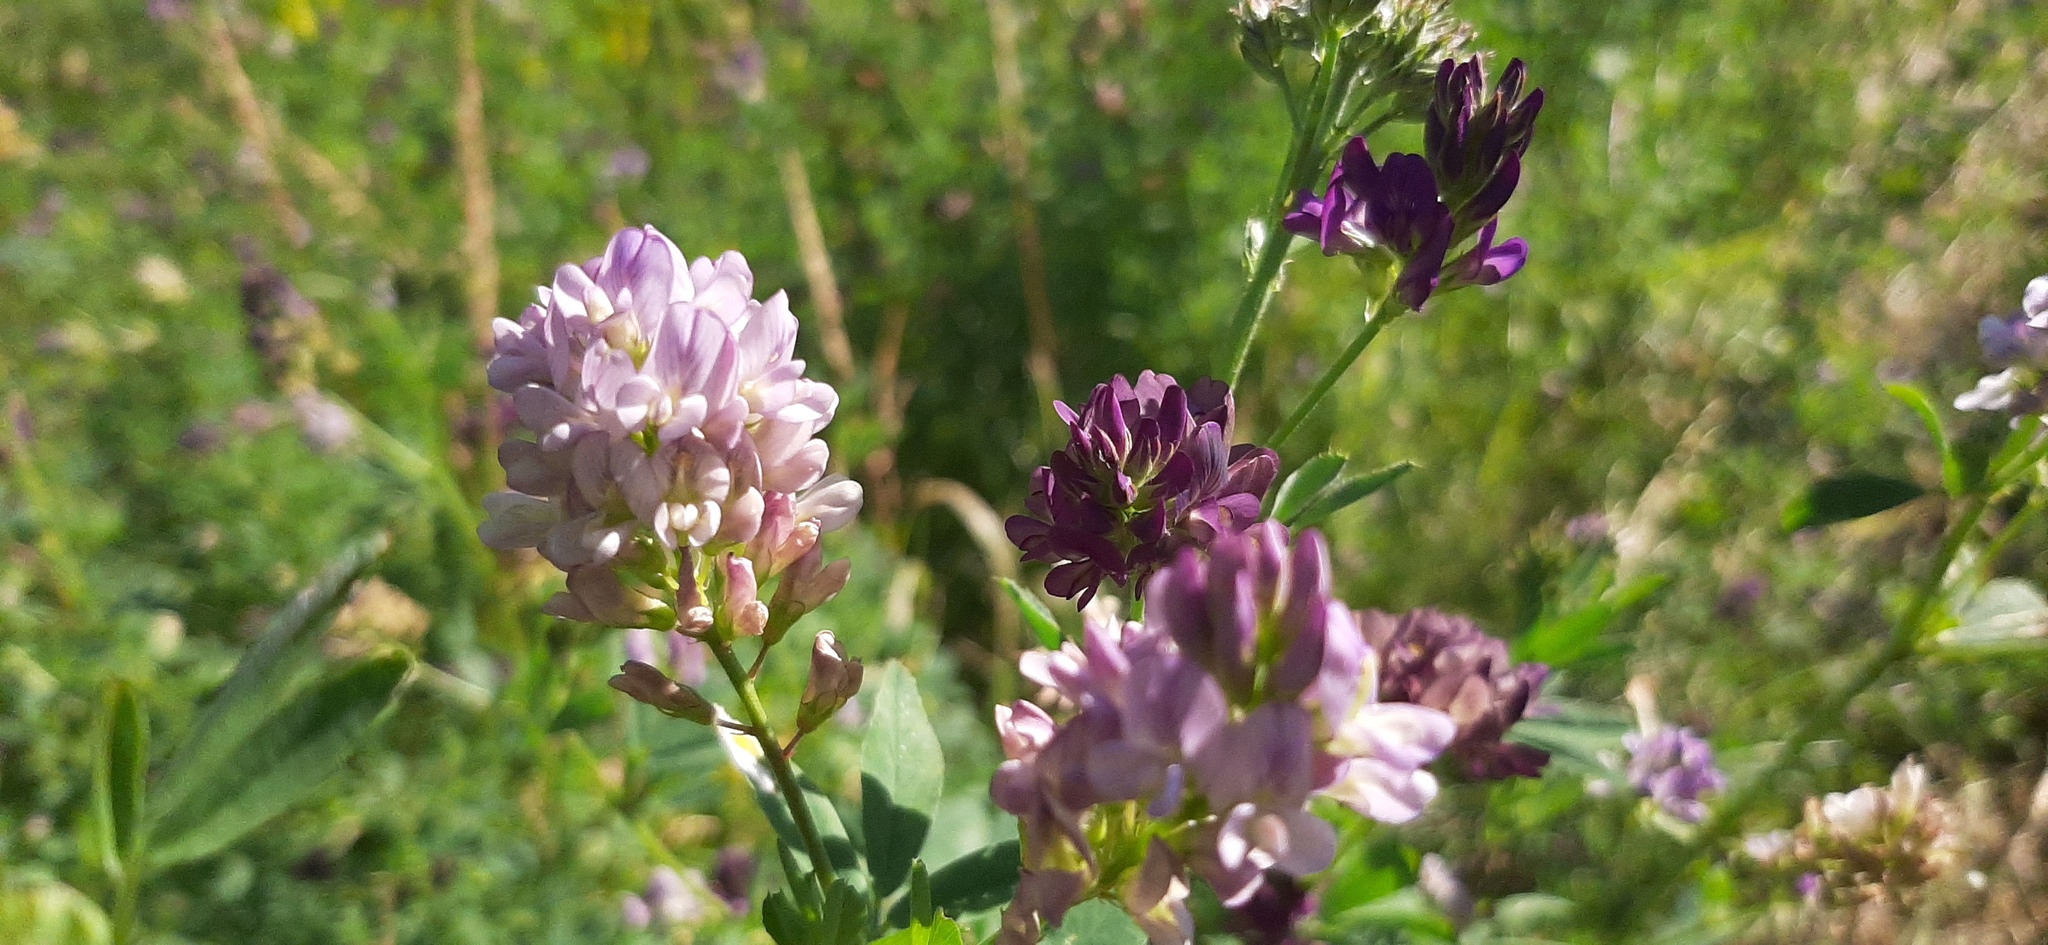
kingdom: Plantae
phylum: Tracheophyta
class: Magnoliopsida
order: Fabales
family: Fabaceae
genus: Medicago
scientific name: Medicago varia
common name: Sand lucerne
